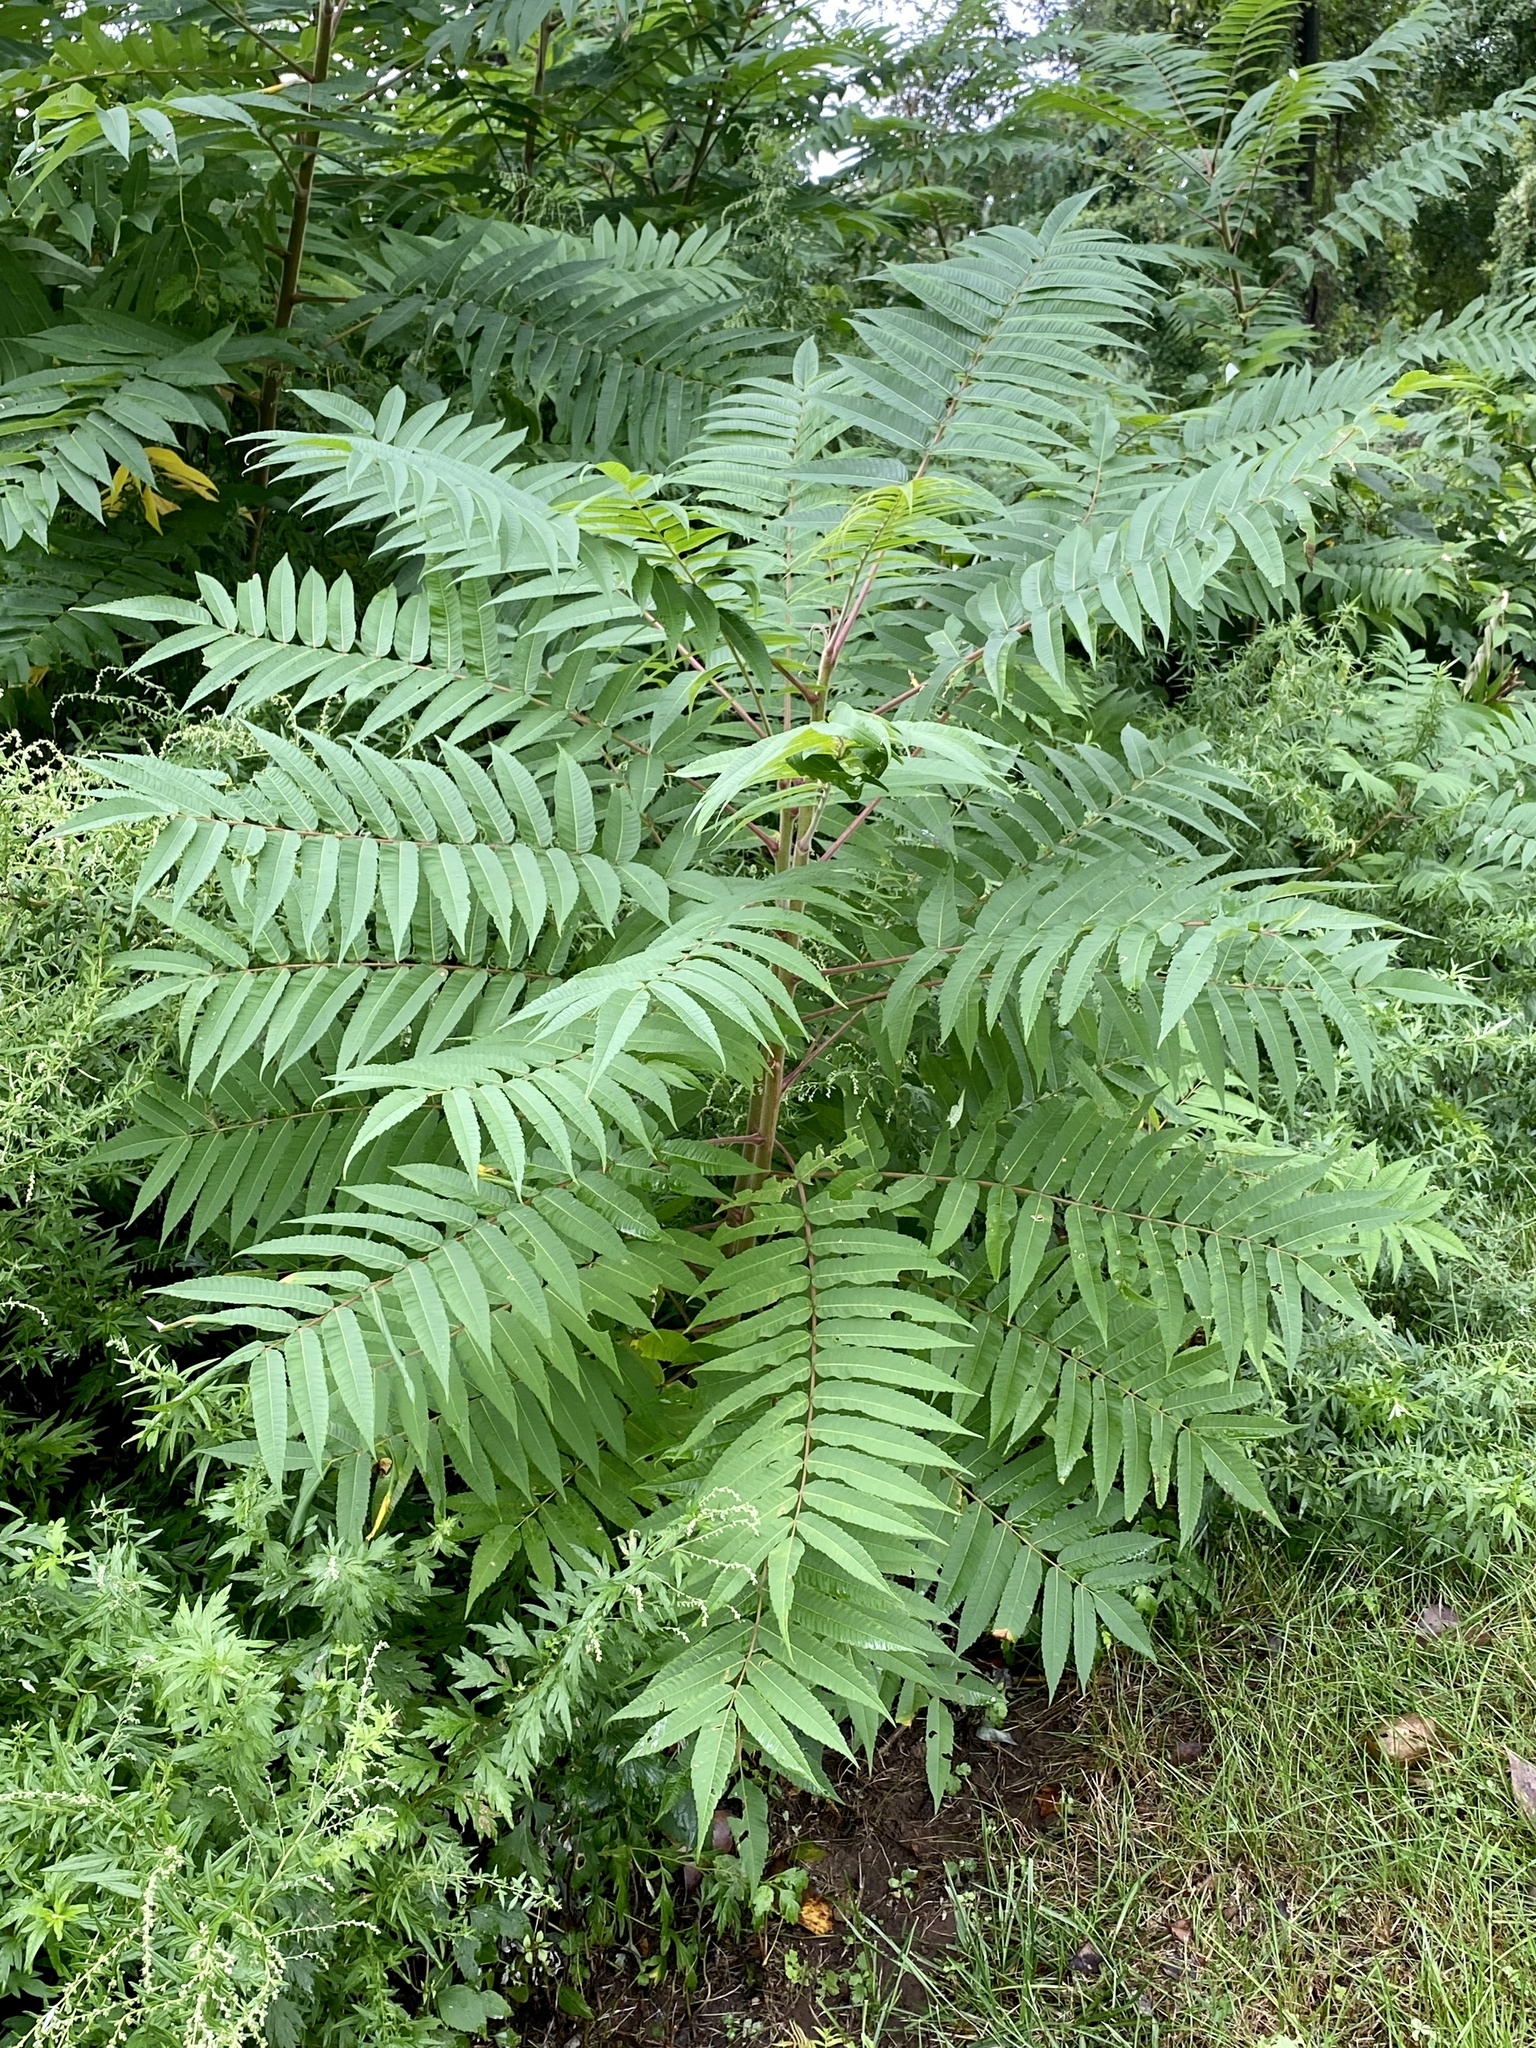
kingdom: Plantae
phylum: Tracheophyta
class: Magnoliopsida
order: Sapindales
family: Anacardiaceae
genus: Rhus
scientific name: Rhus typhina
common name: Staghorn sumac
